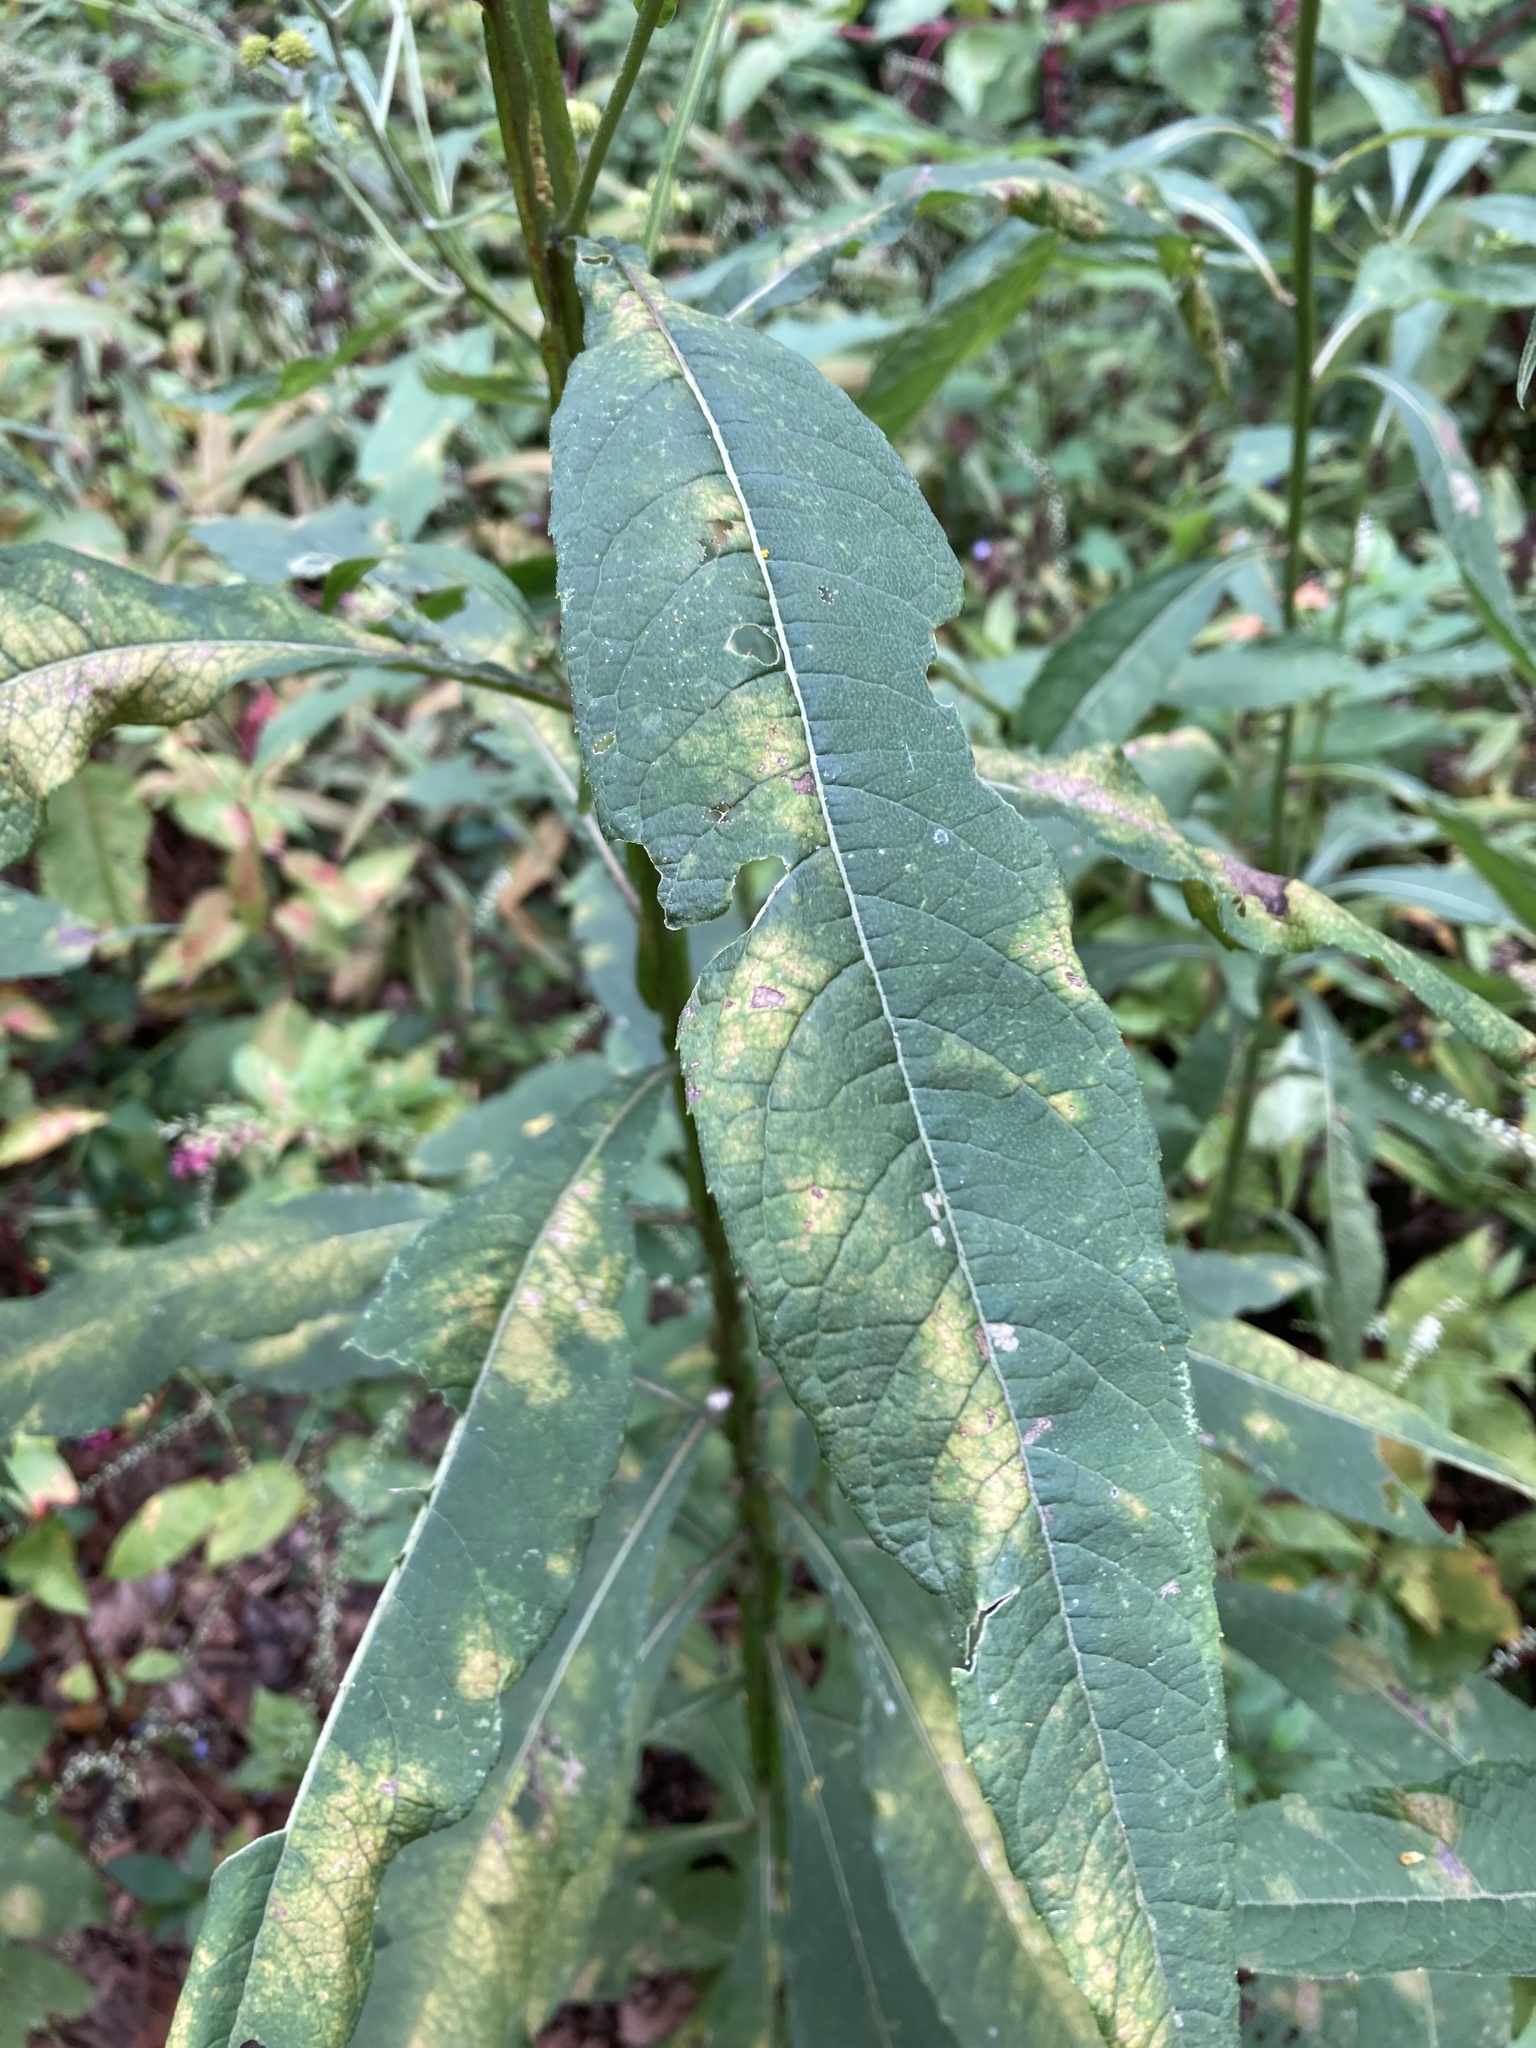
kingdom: Plantae
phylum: Tracheophyta
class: Magnoliopsida
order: Asterales
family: Asteraceae
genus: Verbesina
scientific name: Verbesina alternifolia
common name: Wingstem
